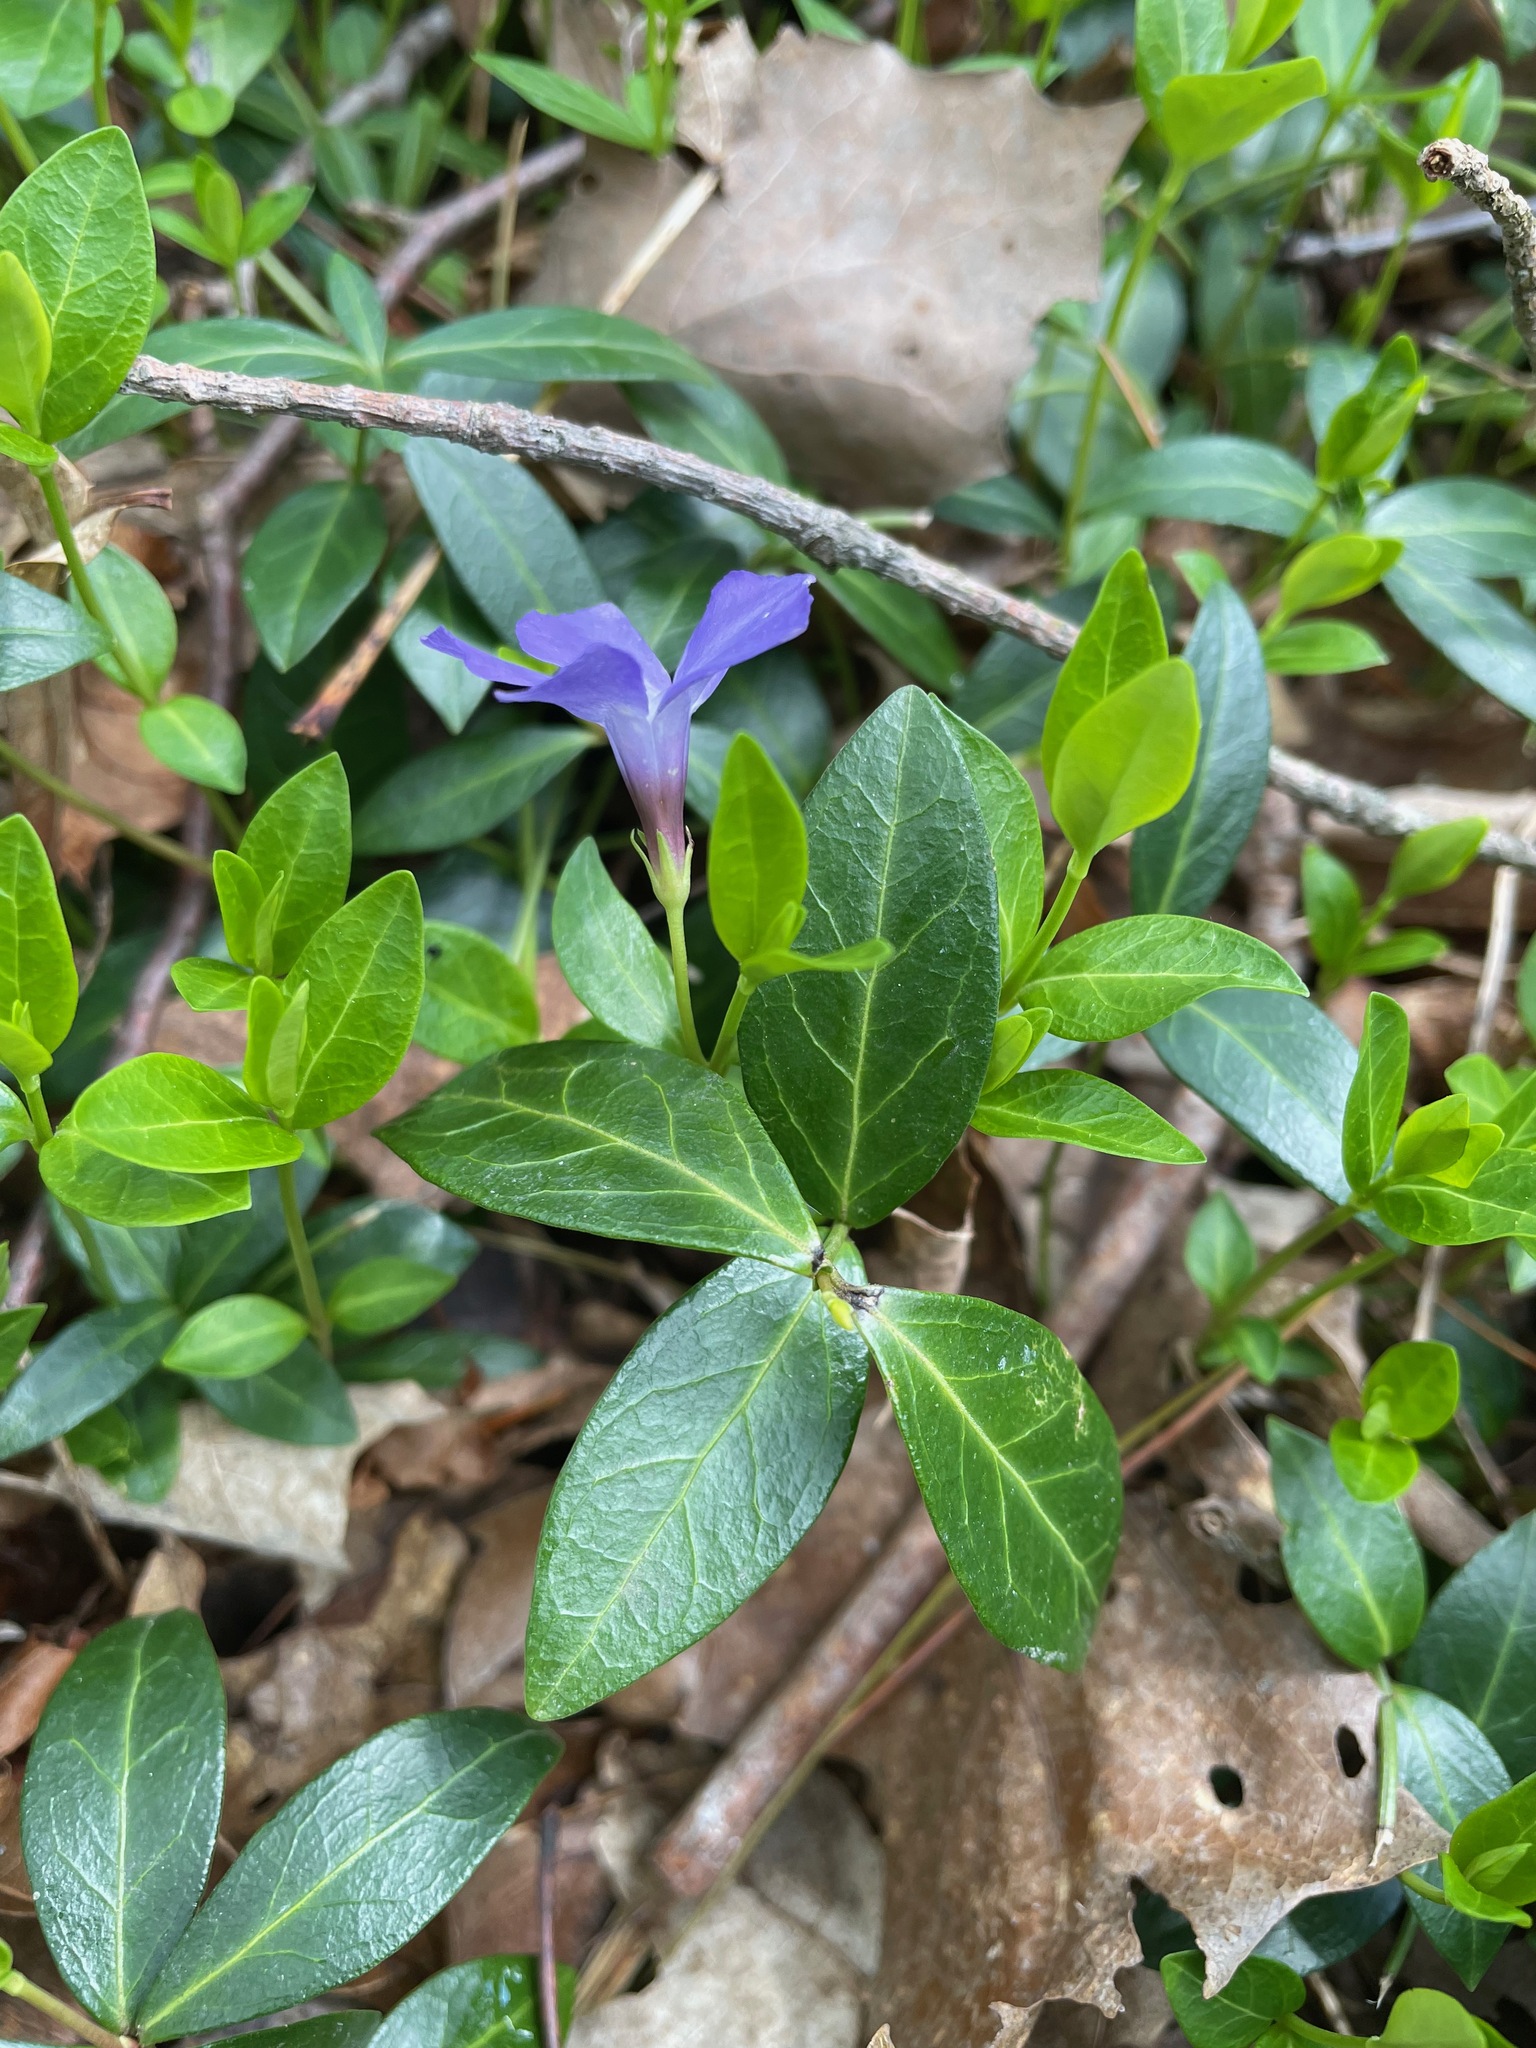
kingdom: Plantae
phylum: Tracheophyta
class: Magnoliopsida
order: Gentianales
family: Apocynaceae
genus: Vinca
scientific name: Vinca minor
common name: Lesser periwinkle
